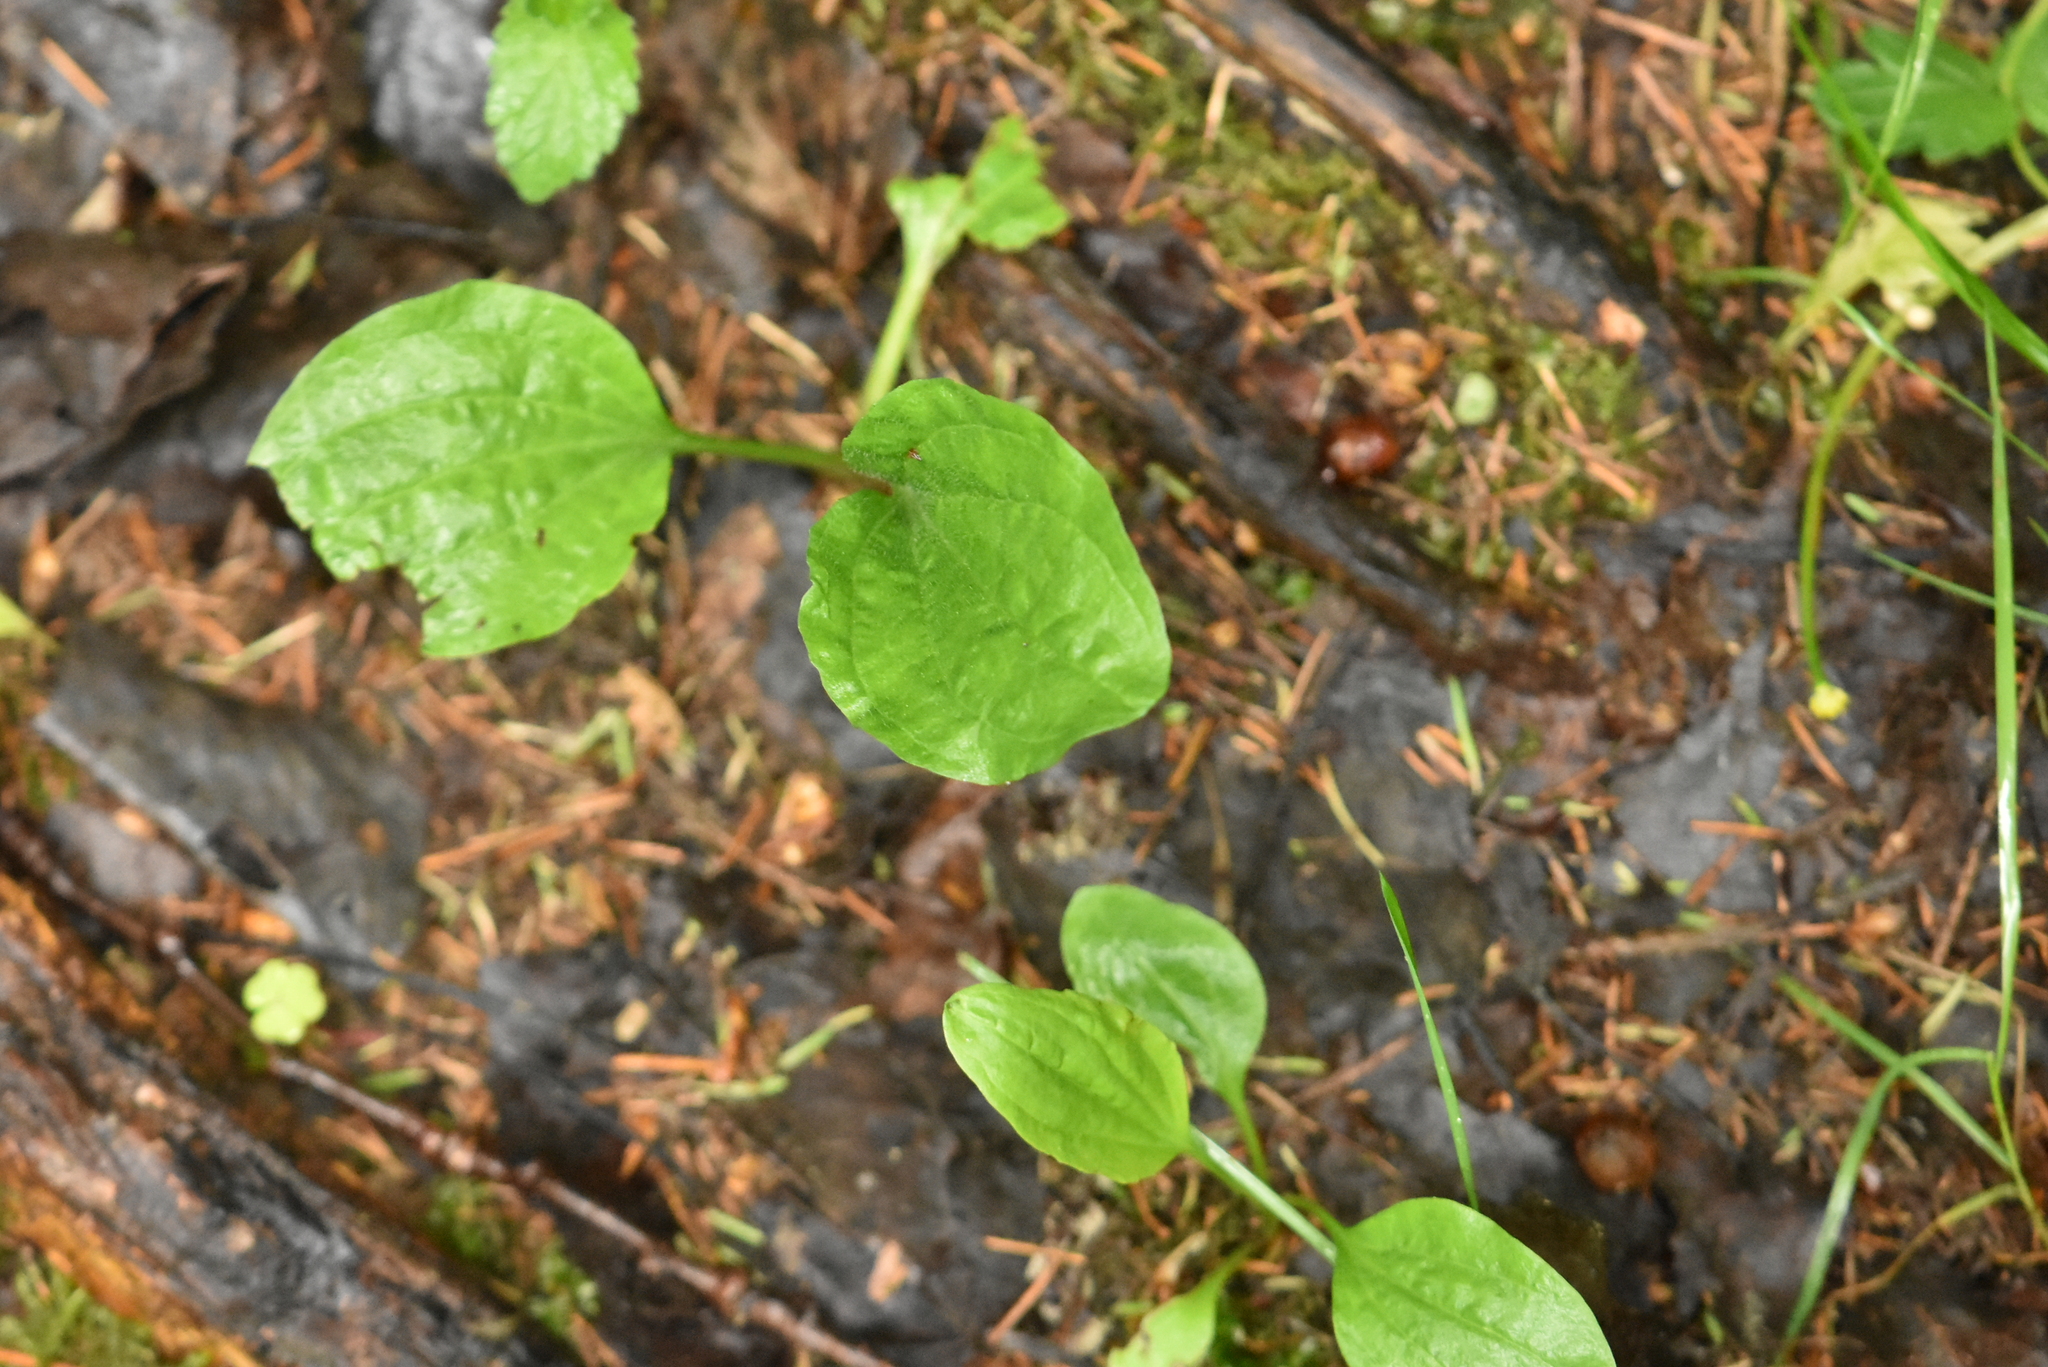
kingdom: Plantae
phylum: Tracheophyta
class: Magnoliopsida
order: Lamiales
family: Plantaginaceae
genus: Plantago
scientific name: Plantago major
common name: Common plantain
